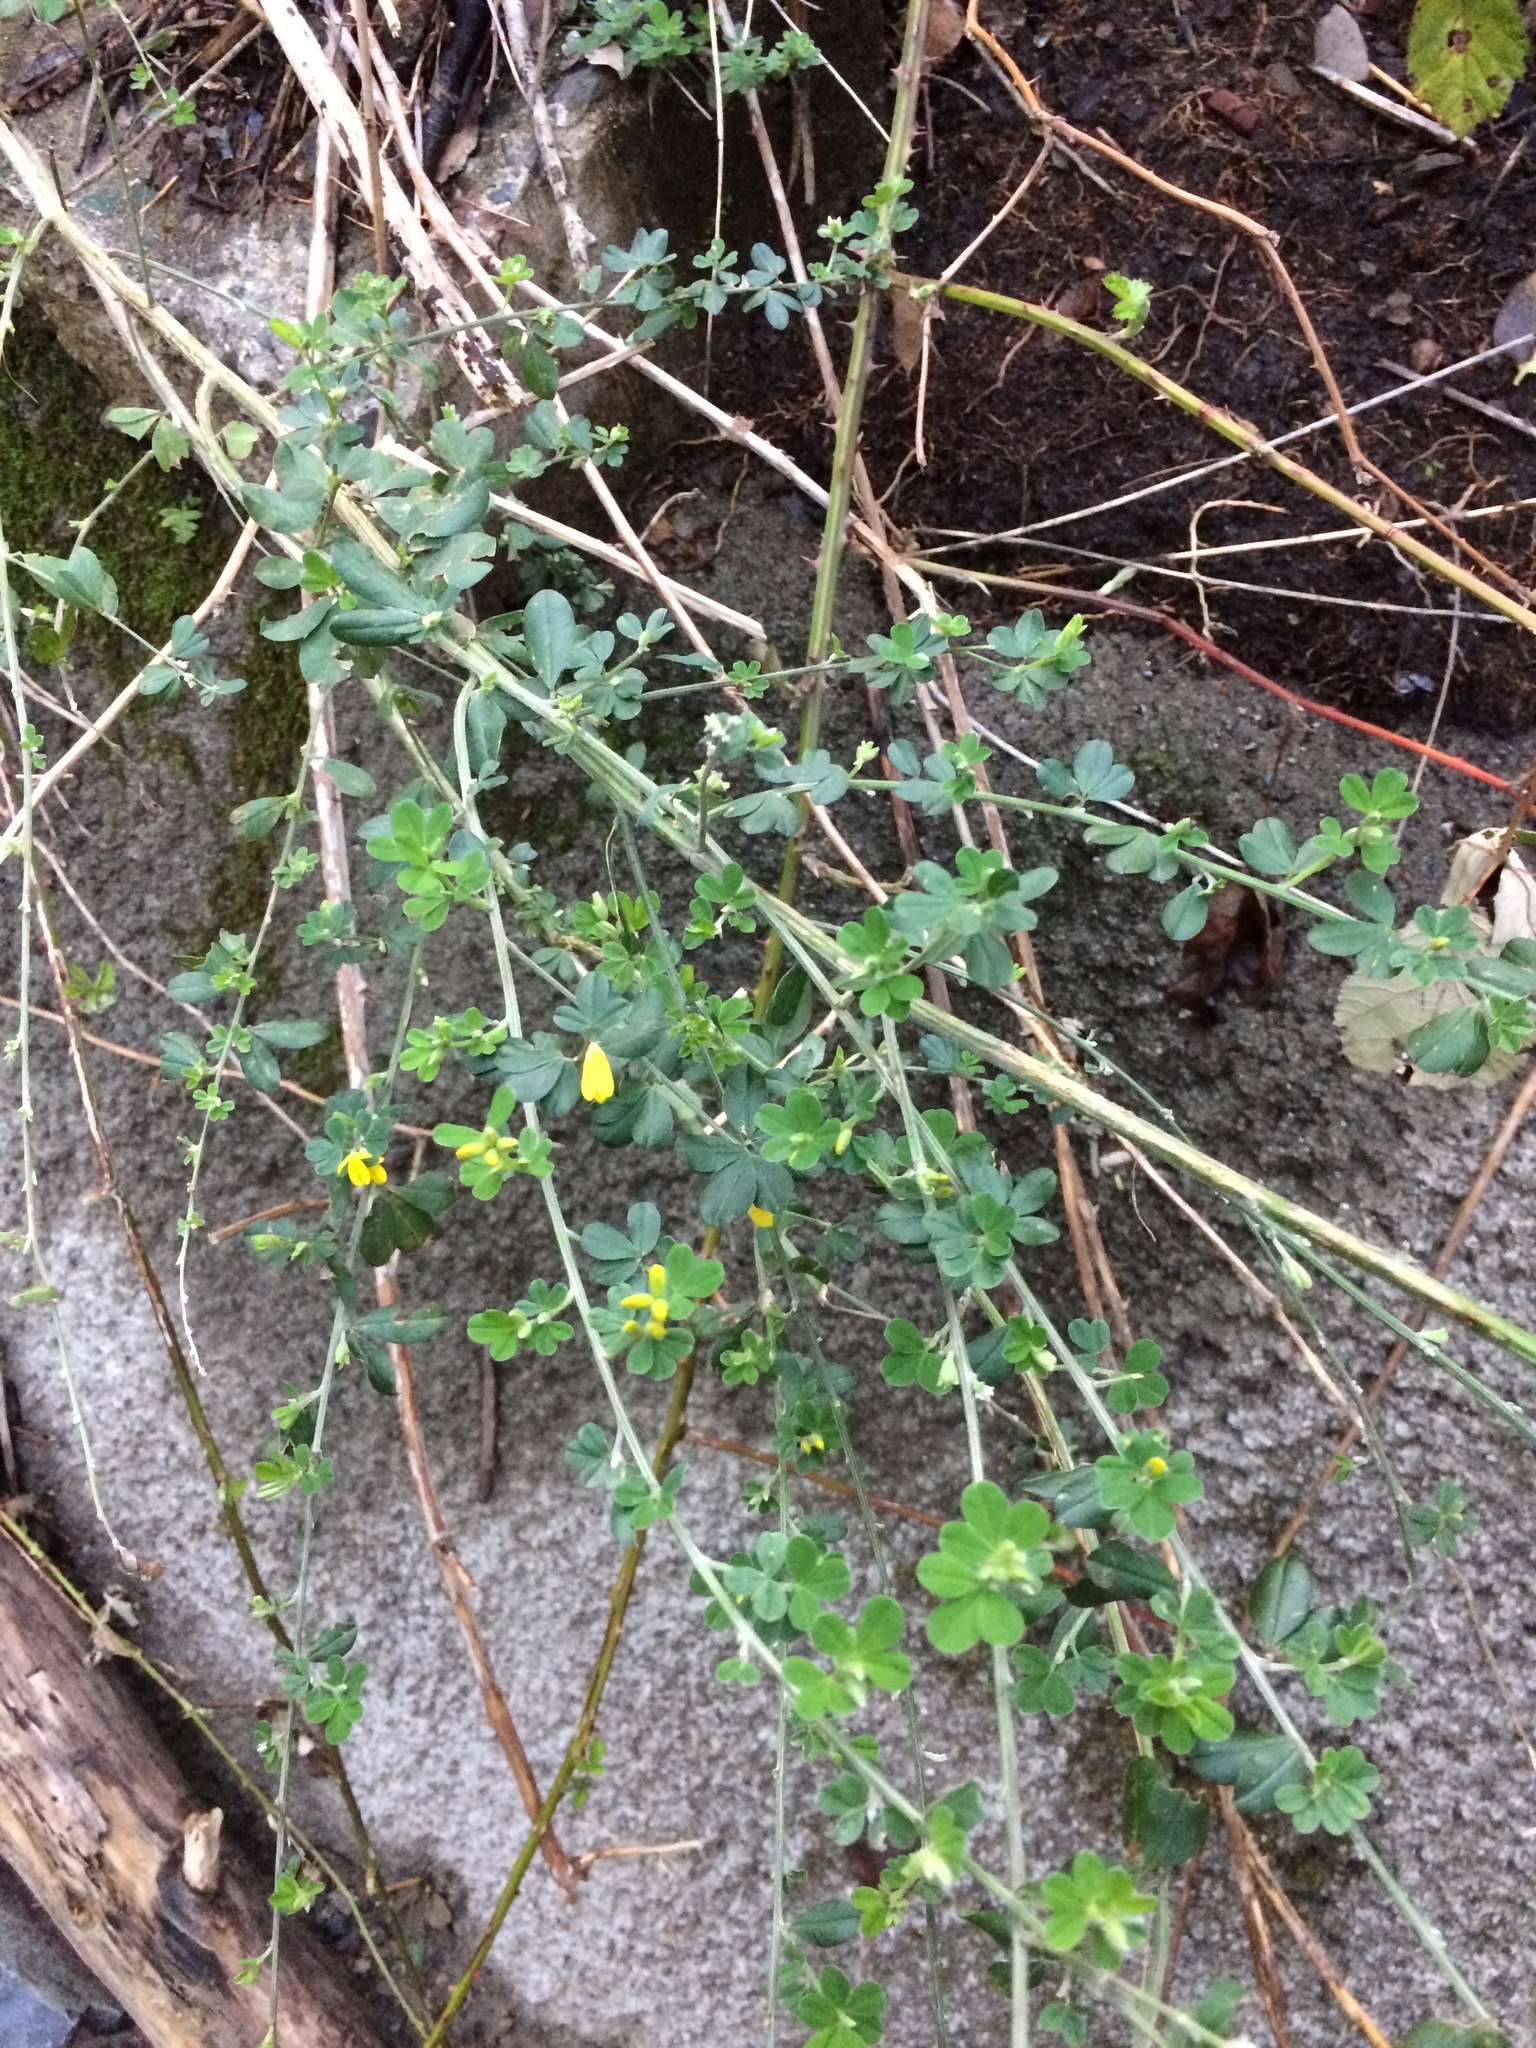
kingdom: Plantae
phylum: Tracheophyta
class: Magnoliopsida
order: Fabales
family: Fabaceae
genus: Genista
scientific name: Genista monspessulana
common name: Montpellier broom
